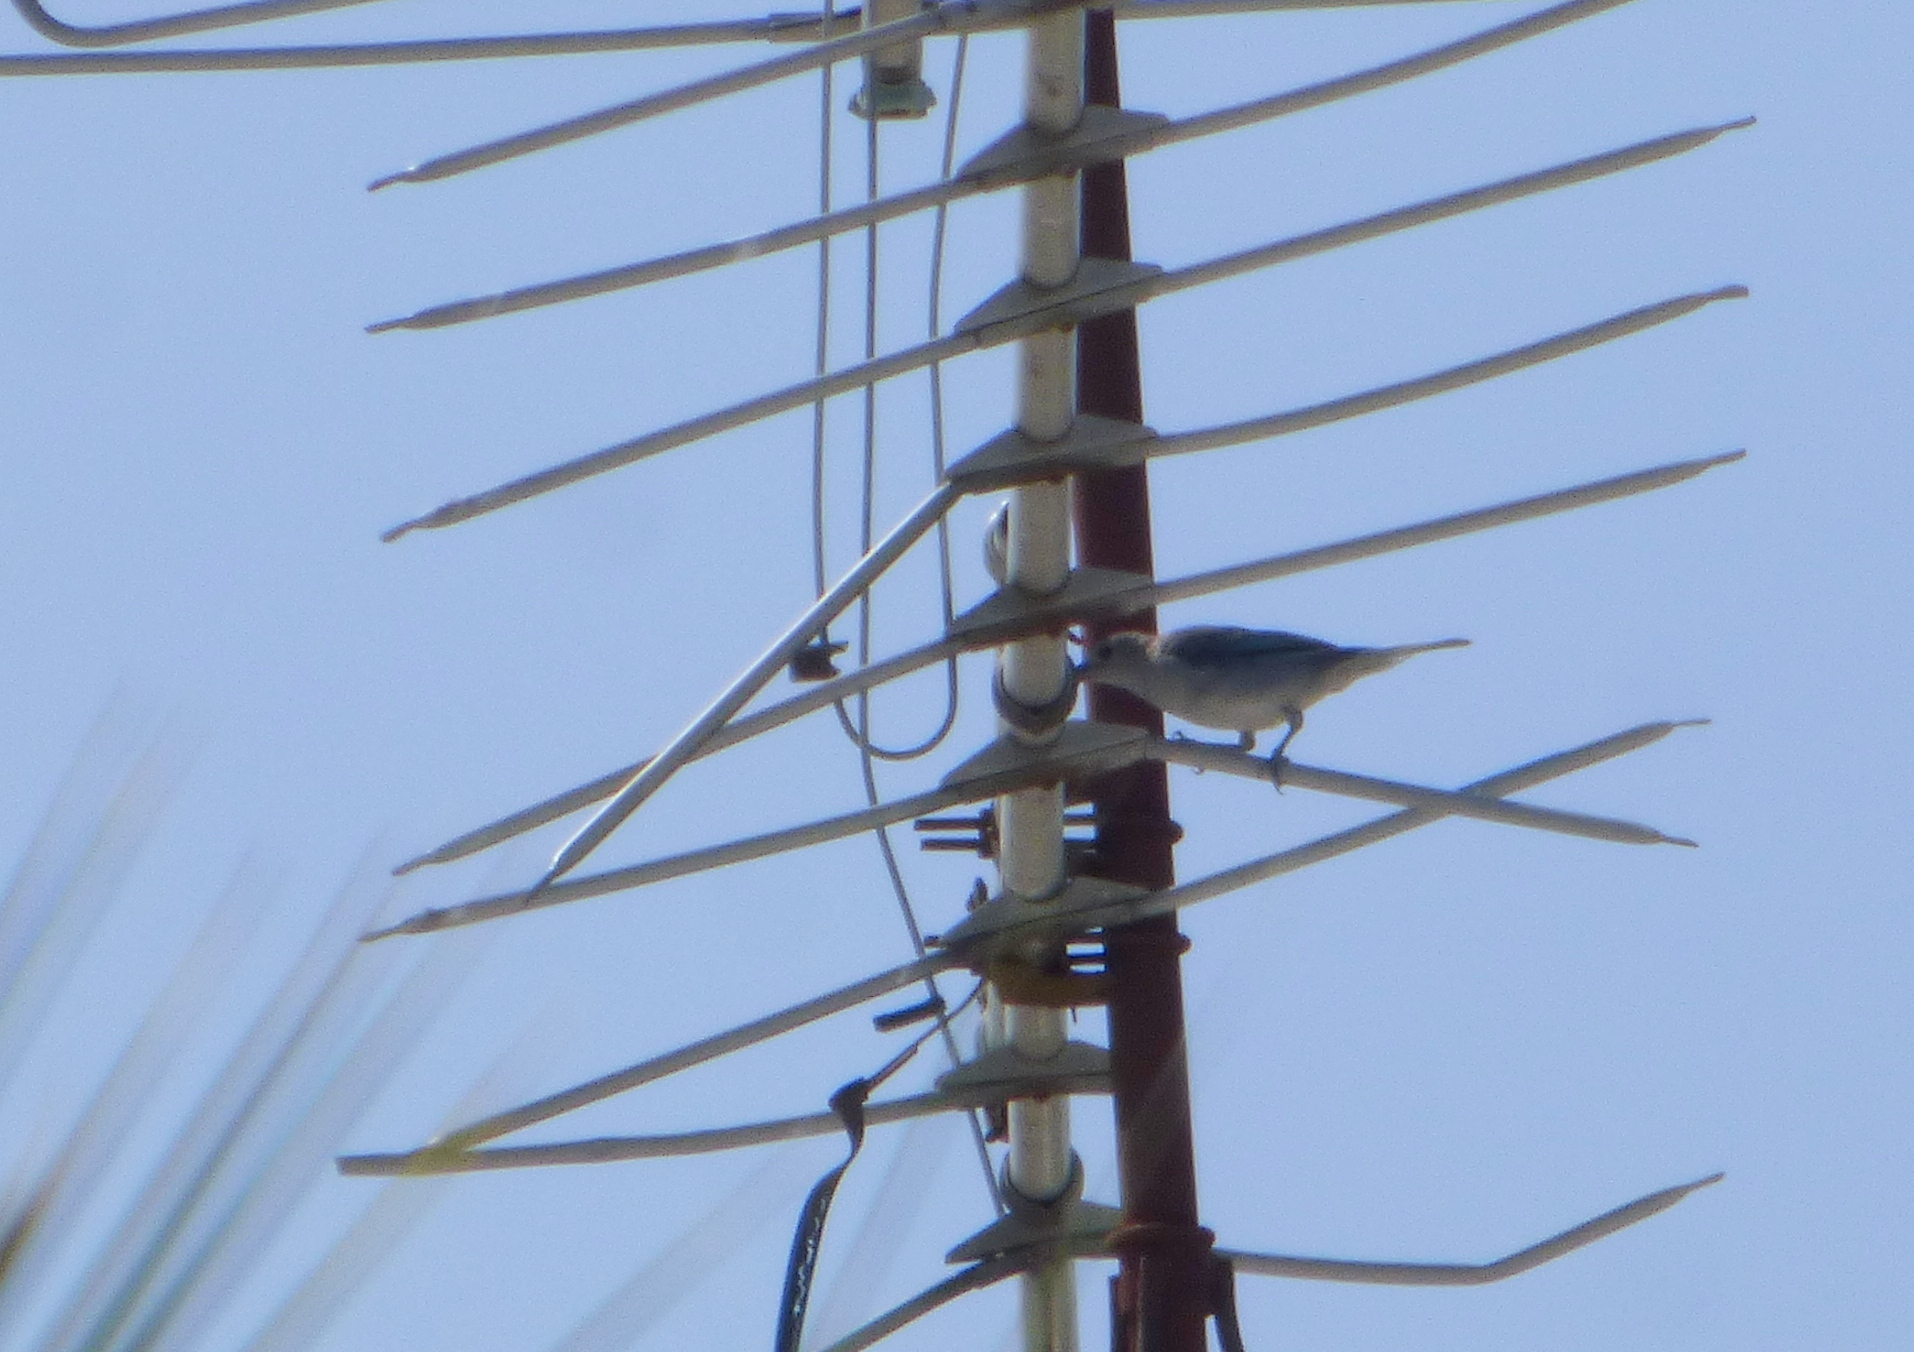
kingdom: Animalia
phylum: Chordata
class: Aves
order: Passeriformes
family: Thraupidae
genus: Thraupis
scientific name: Thraupis sayaca
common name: Sayaca tanager
